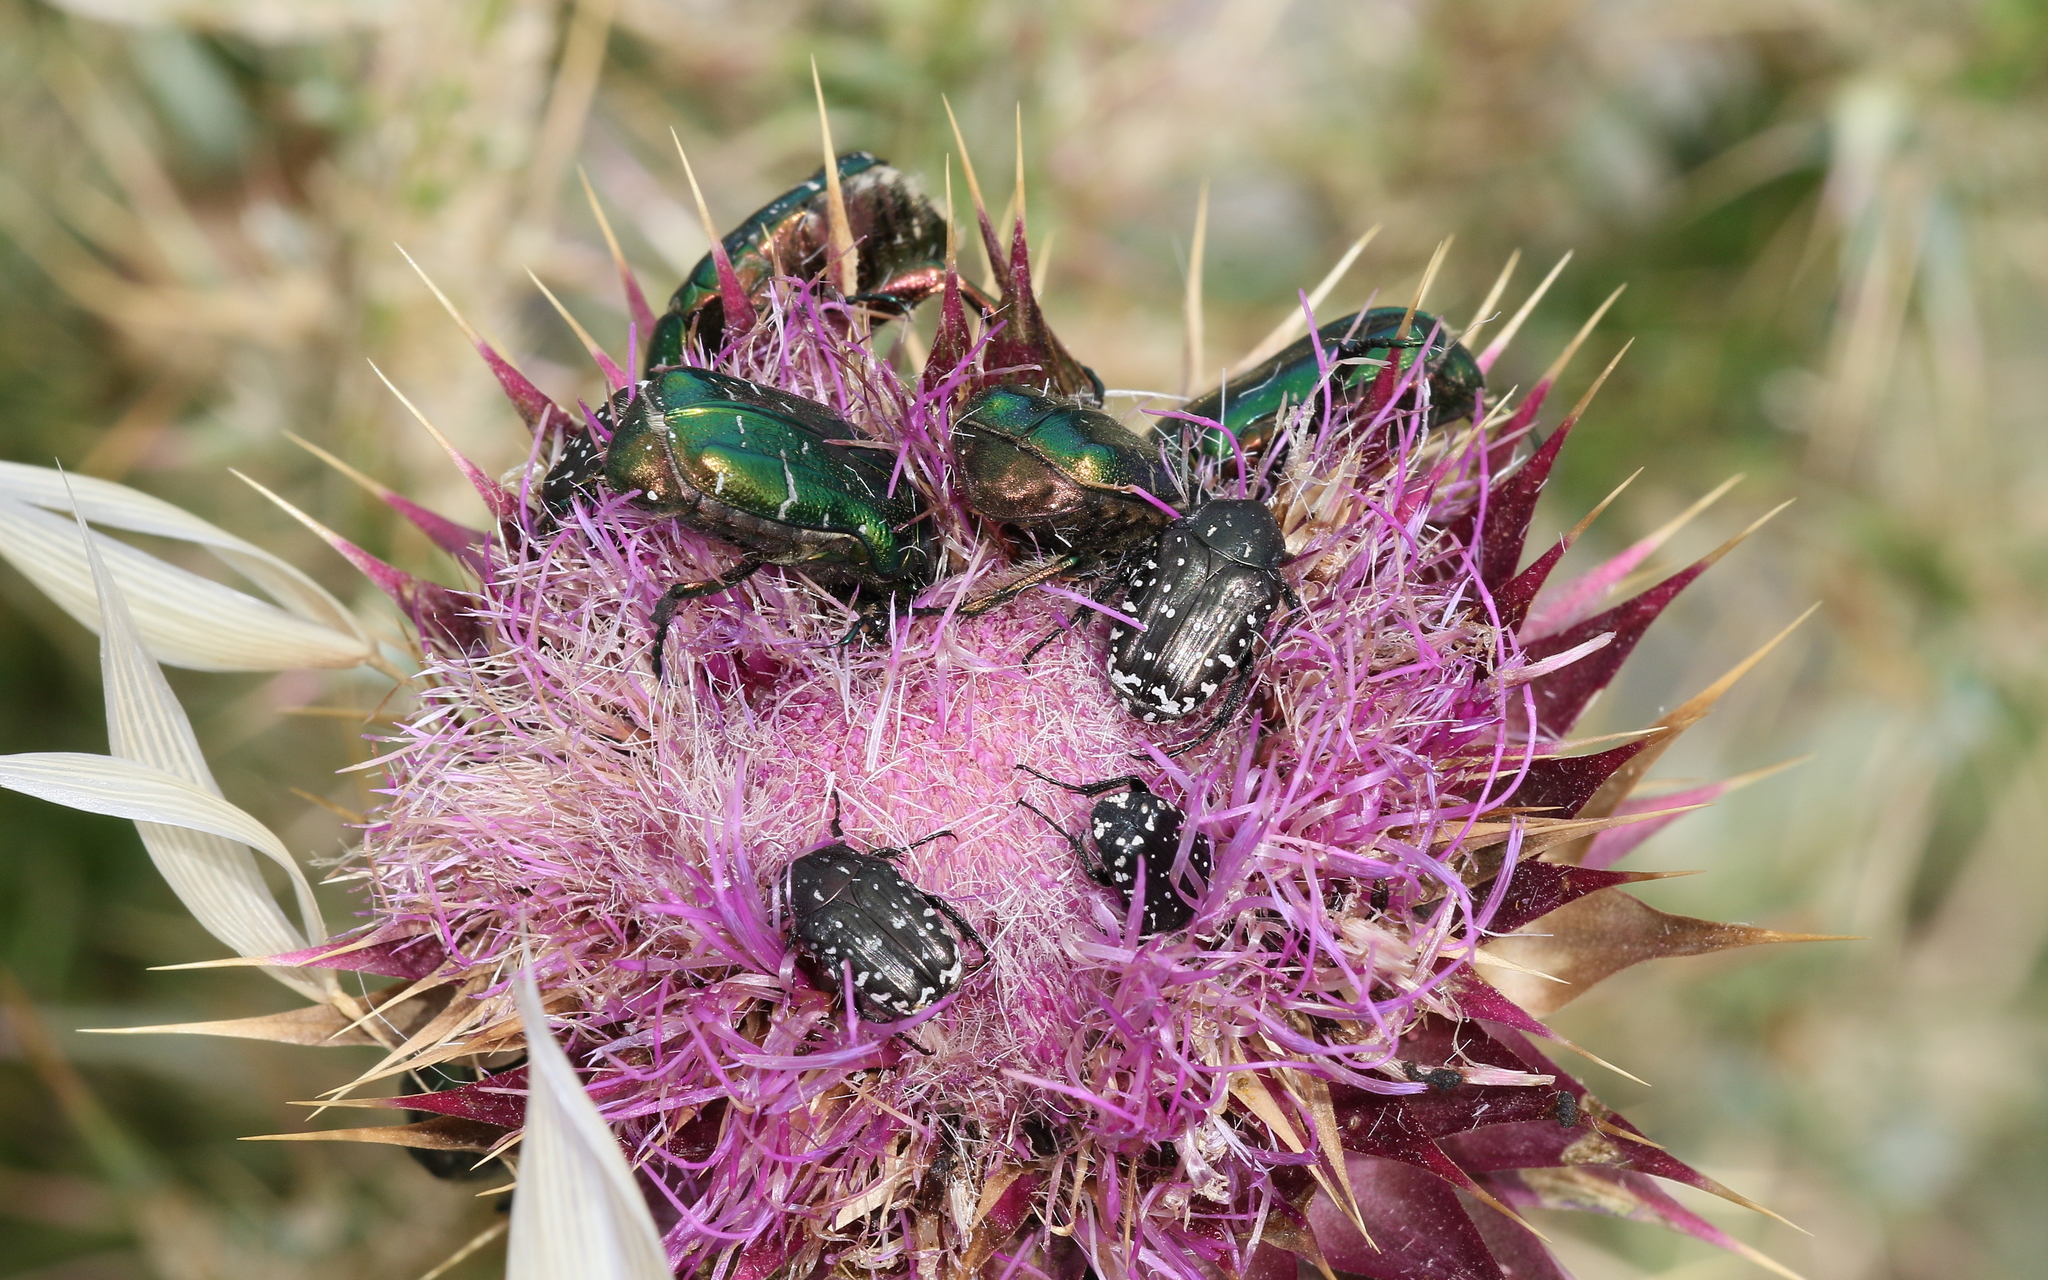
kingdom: Animalia
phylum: Arthropoda
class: Insecta
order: Coleoptera
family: Scarabaeidae
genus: Oxythyrea
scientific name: Oxythyrea funesta
